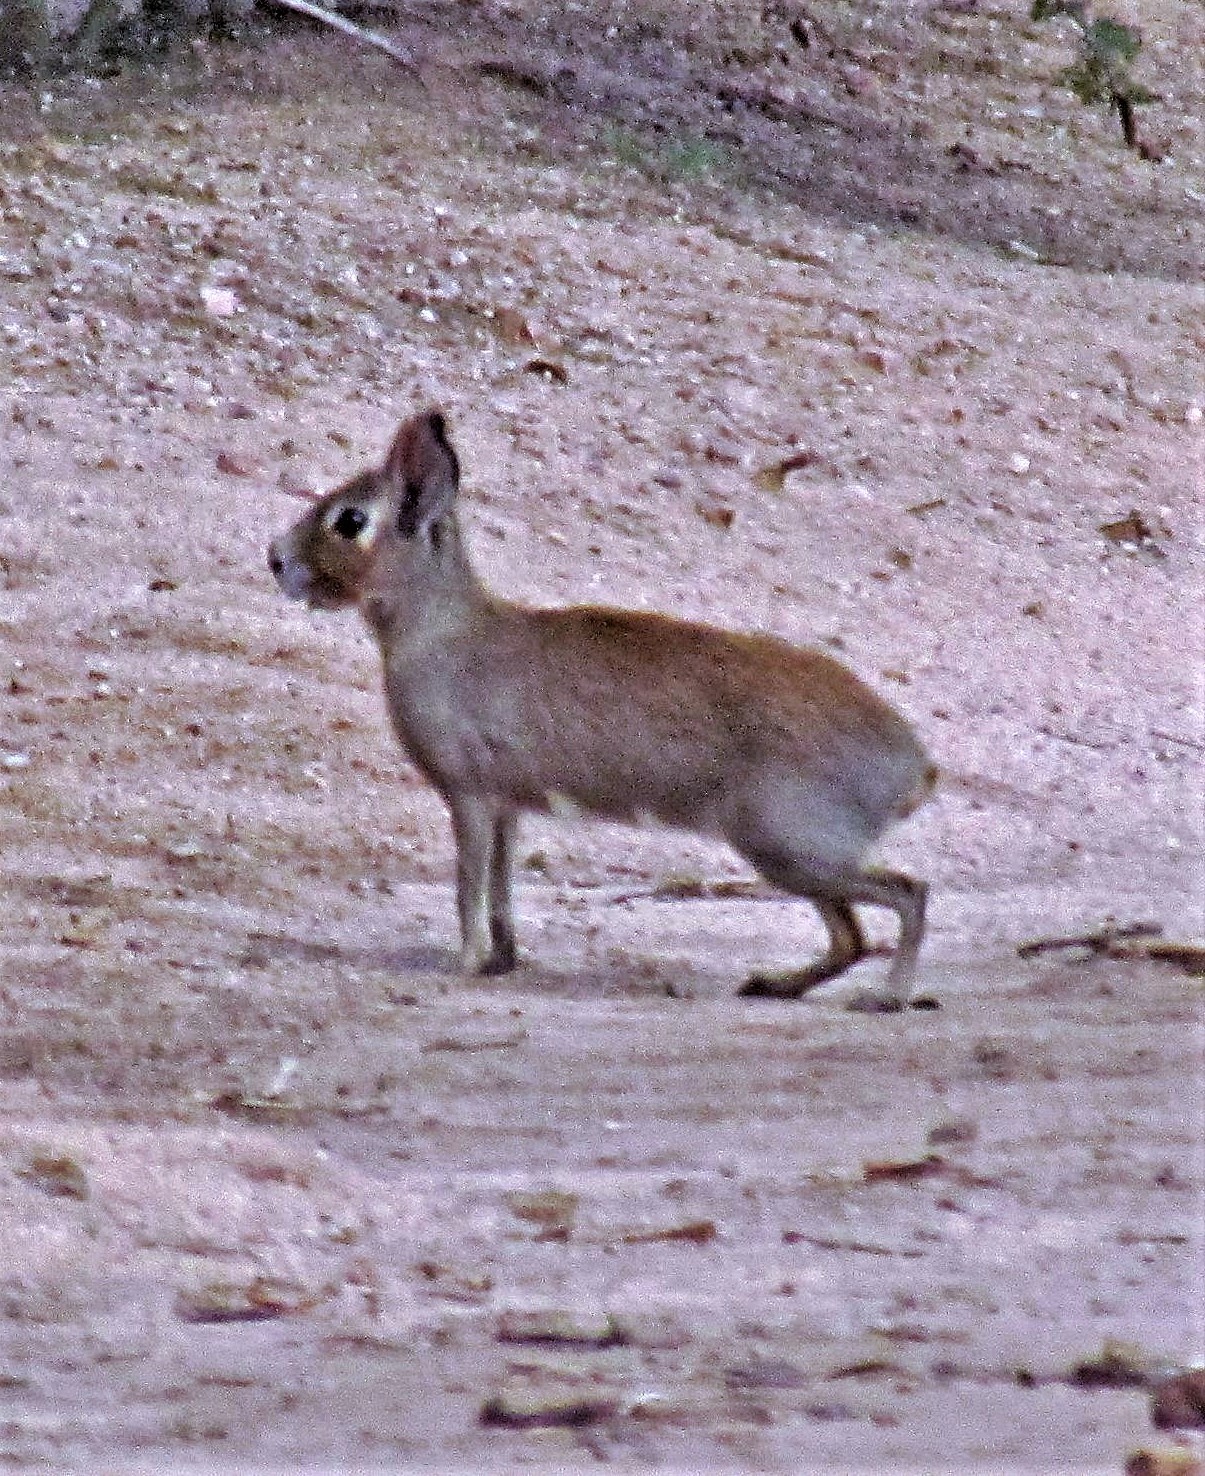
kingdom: Animalia
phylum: Chordata
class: Mammalia
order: Rodentia
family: Caviidae
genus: Dolichotis
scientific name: Dolichotis Pediolagus salinicola
